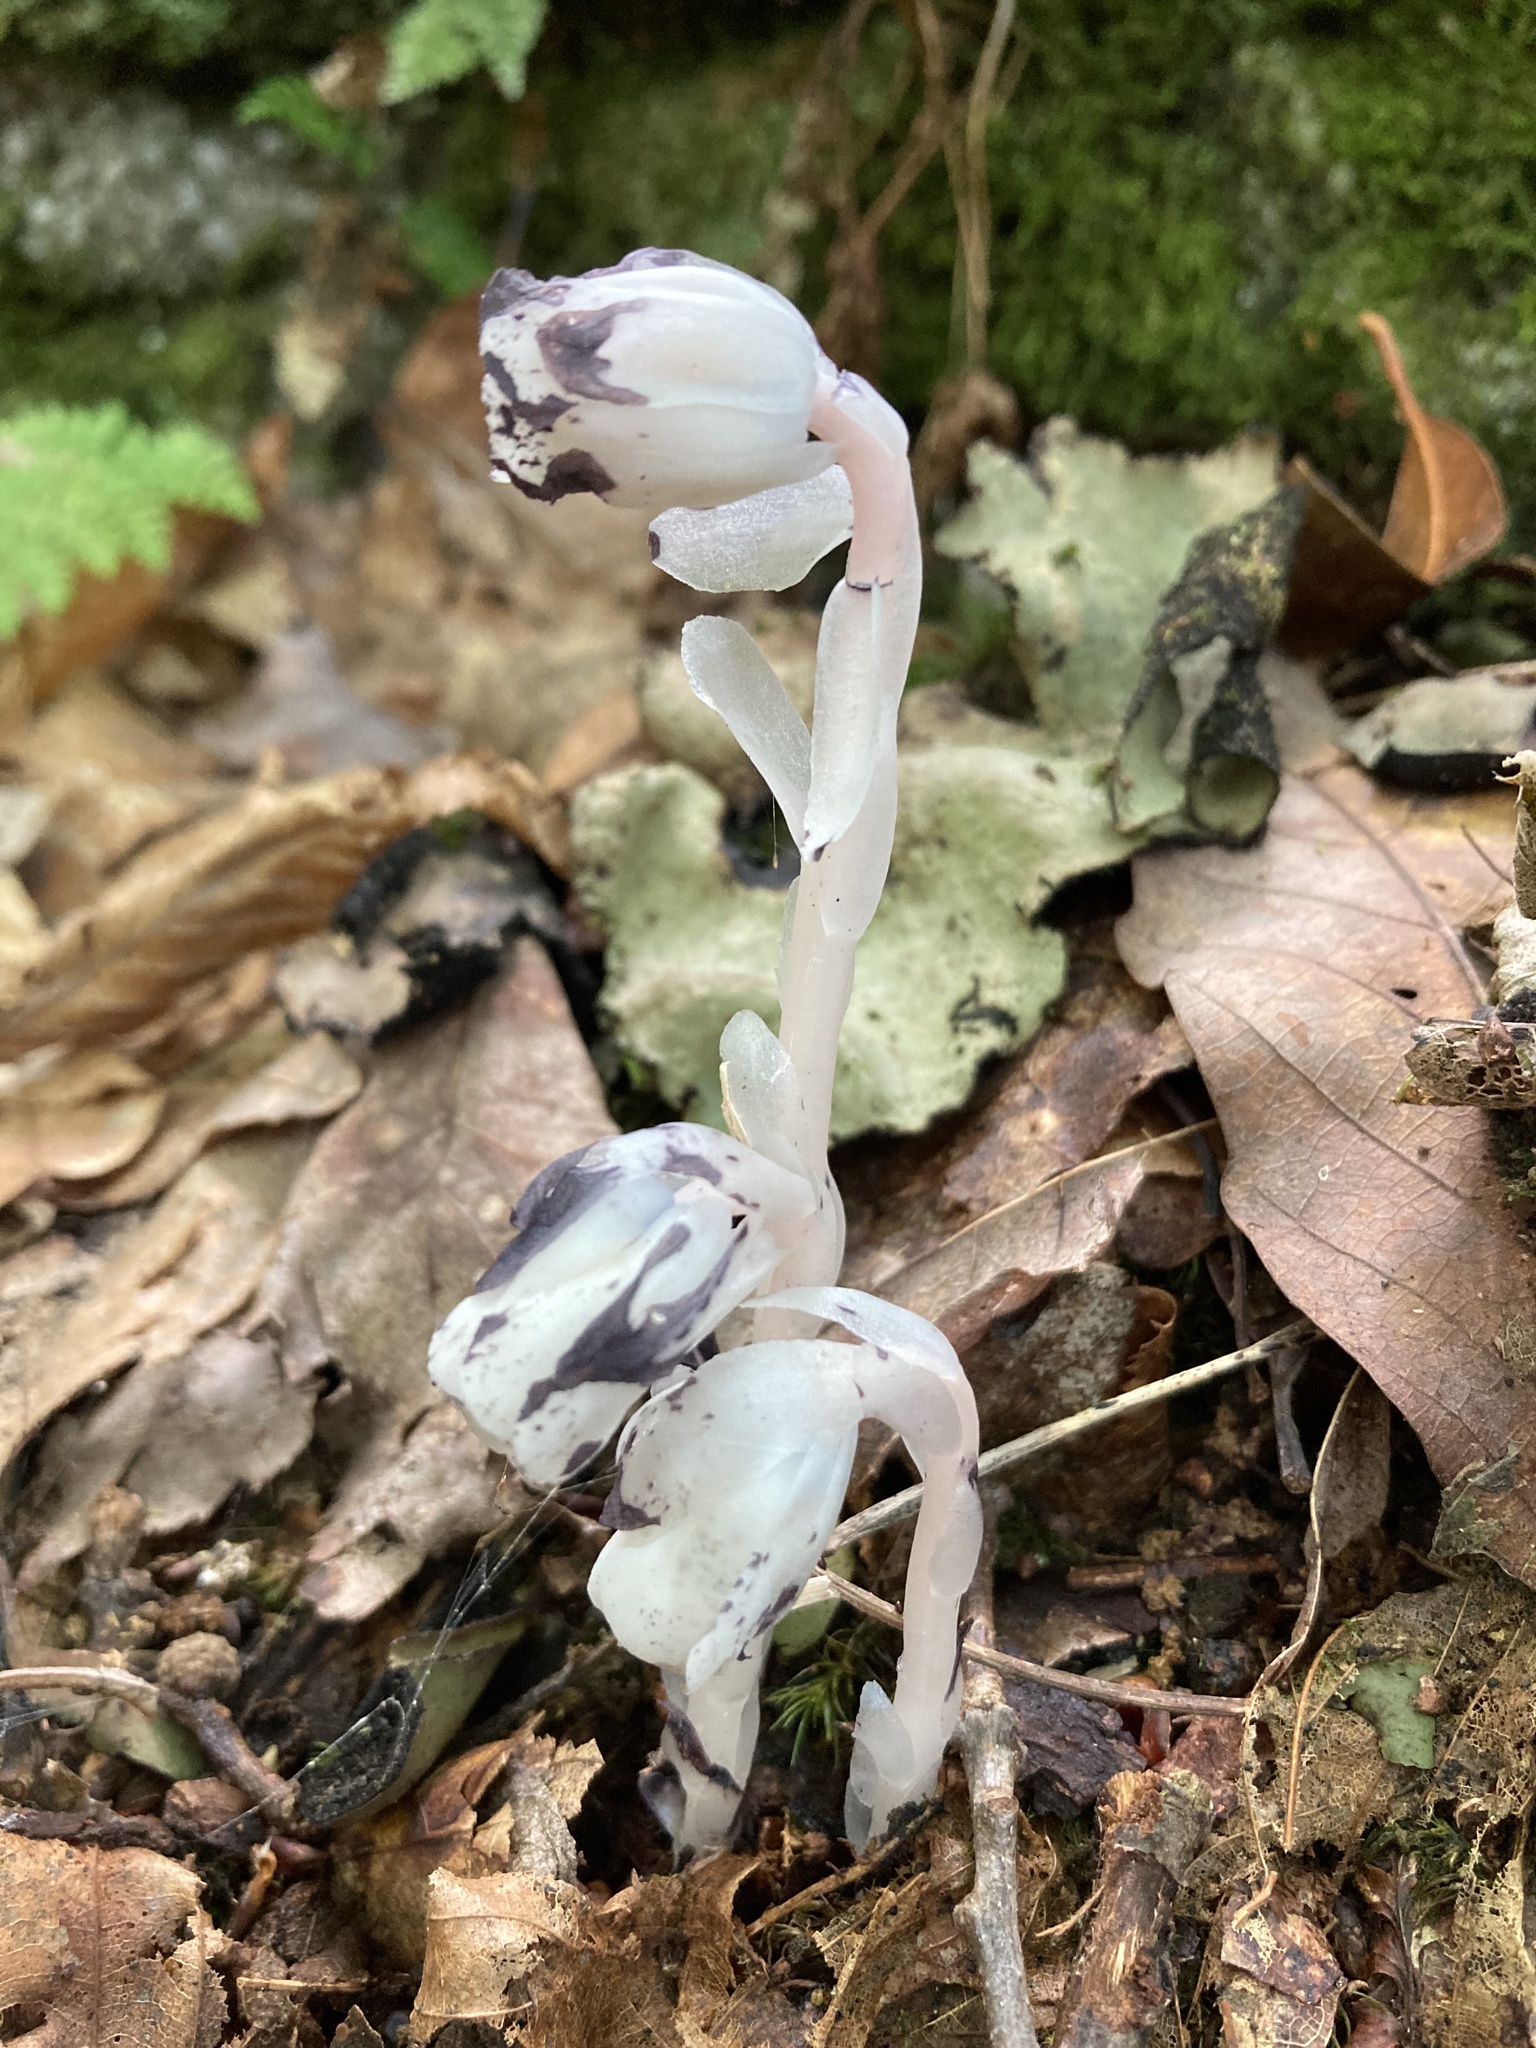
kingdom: Plantae
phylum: Tracheophyta
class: Magnoliopsida
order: Ericales
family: Ericaceae
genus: Monotropa
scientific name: Monotropa uniflora
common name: Convulsion root
